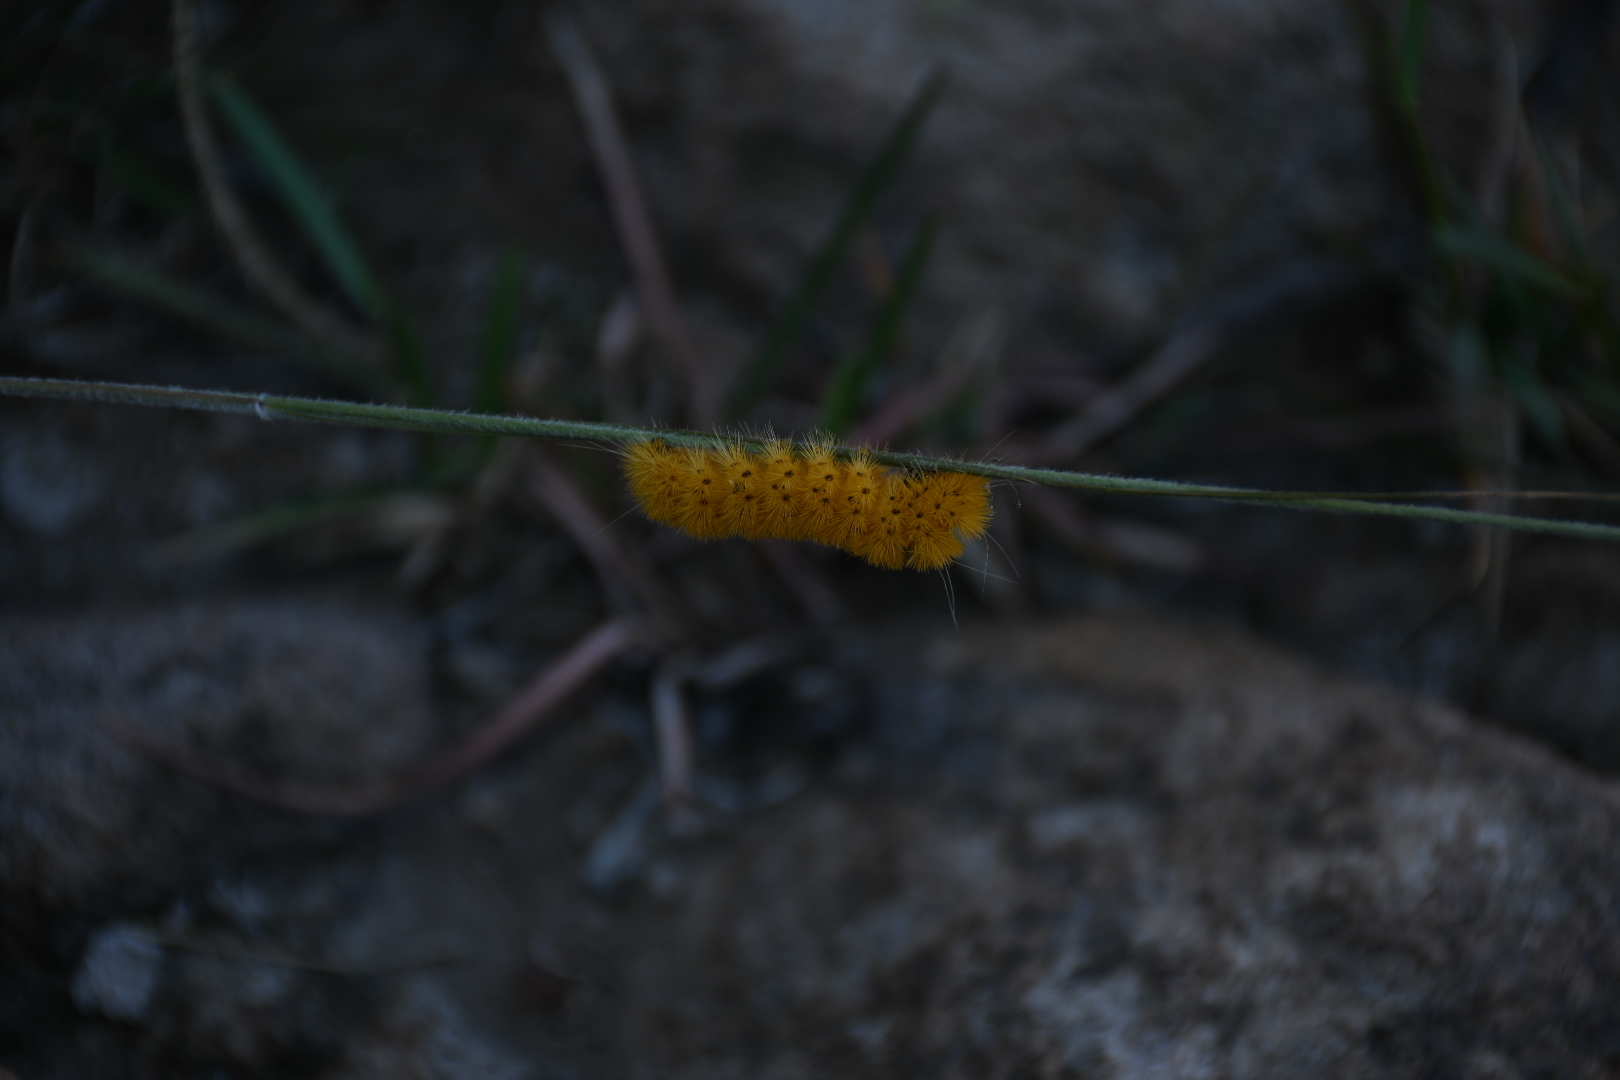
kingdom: Animalia
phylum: Arthropoda
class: Insecta
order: Lepidoptera
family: Erebidae
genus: Lerina
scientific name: Lerina incarnata
